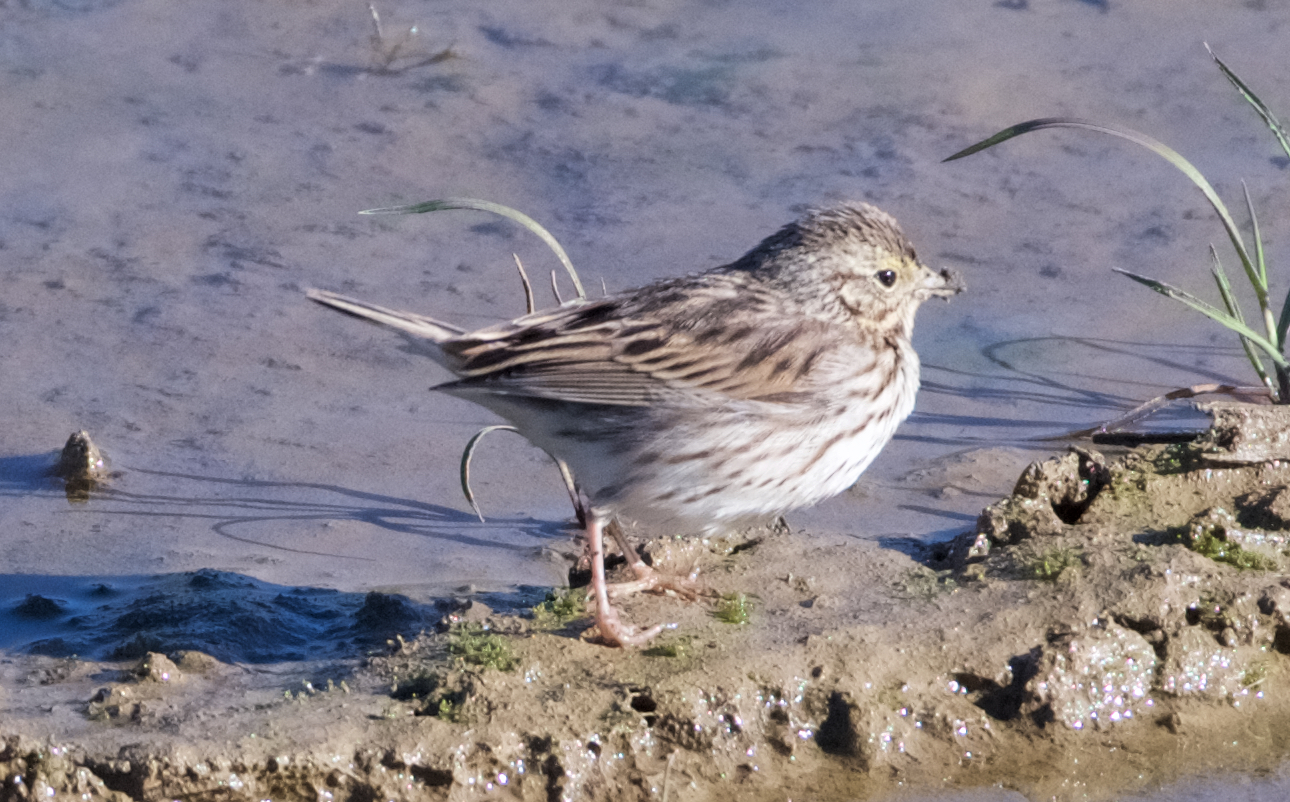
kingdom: Animalia
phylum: Chordata
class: Aves
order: Passeriformes
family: Passerellidae
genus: Passerculus
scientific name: Passerculus sandwichensis
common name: Savannah sparrow
